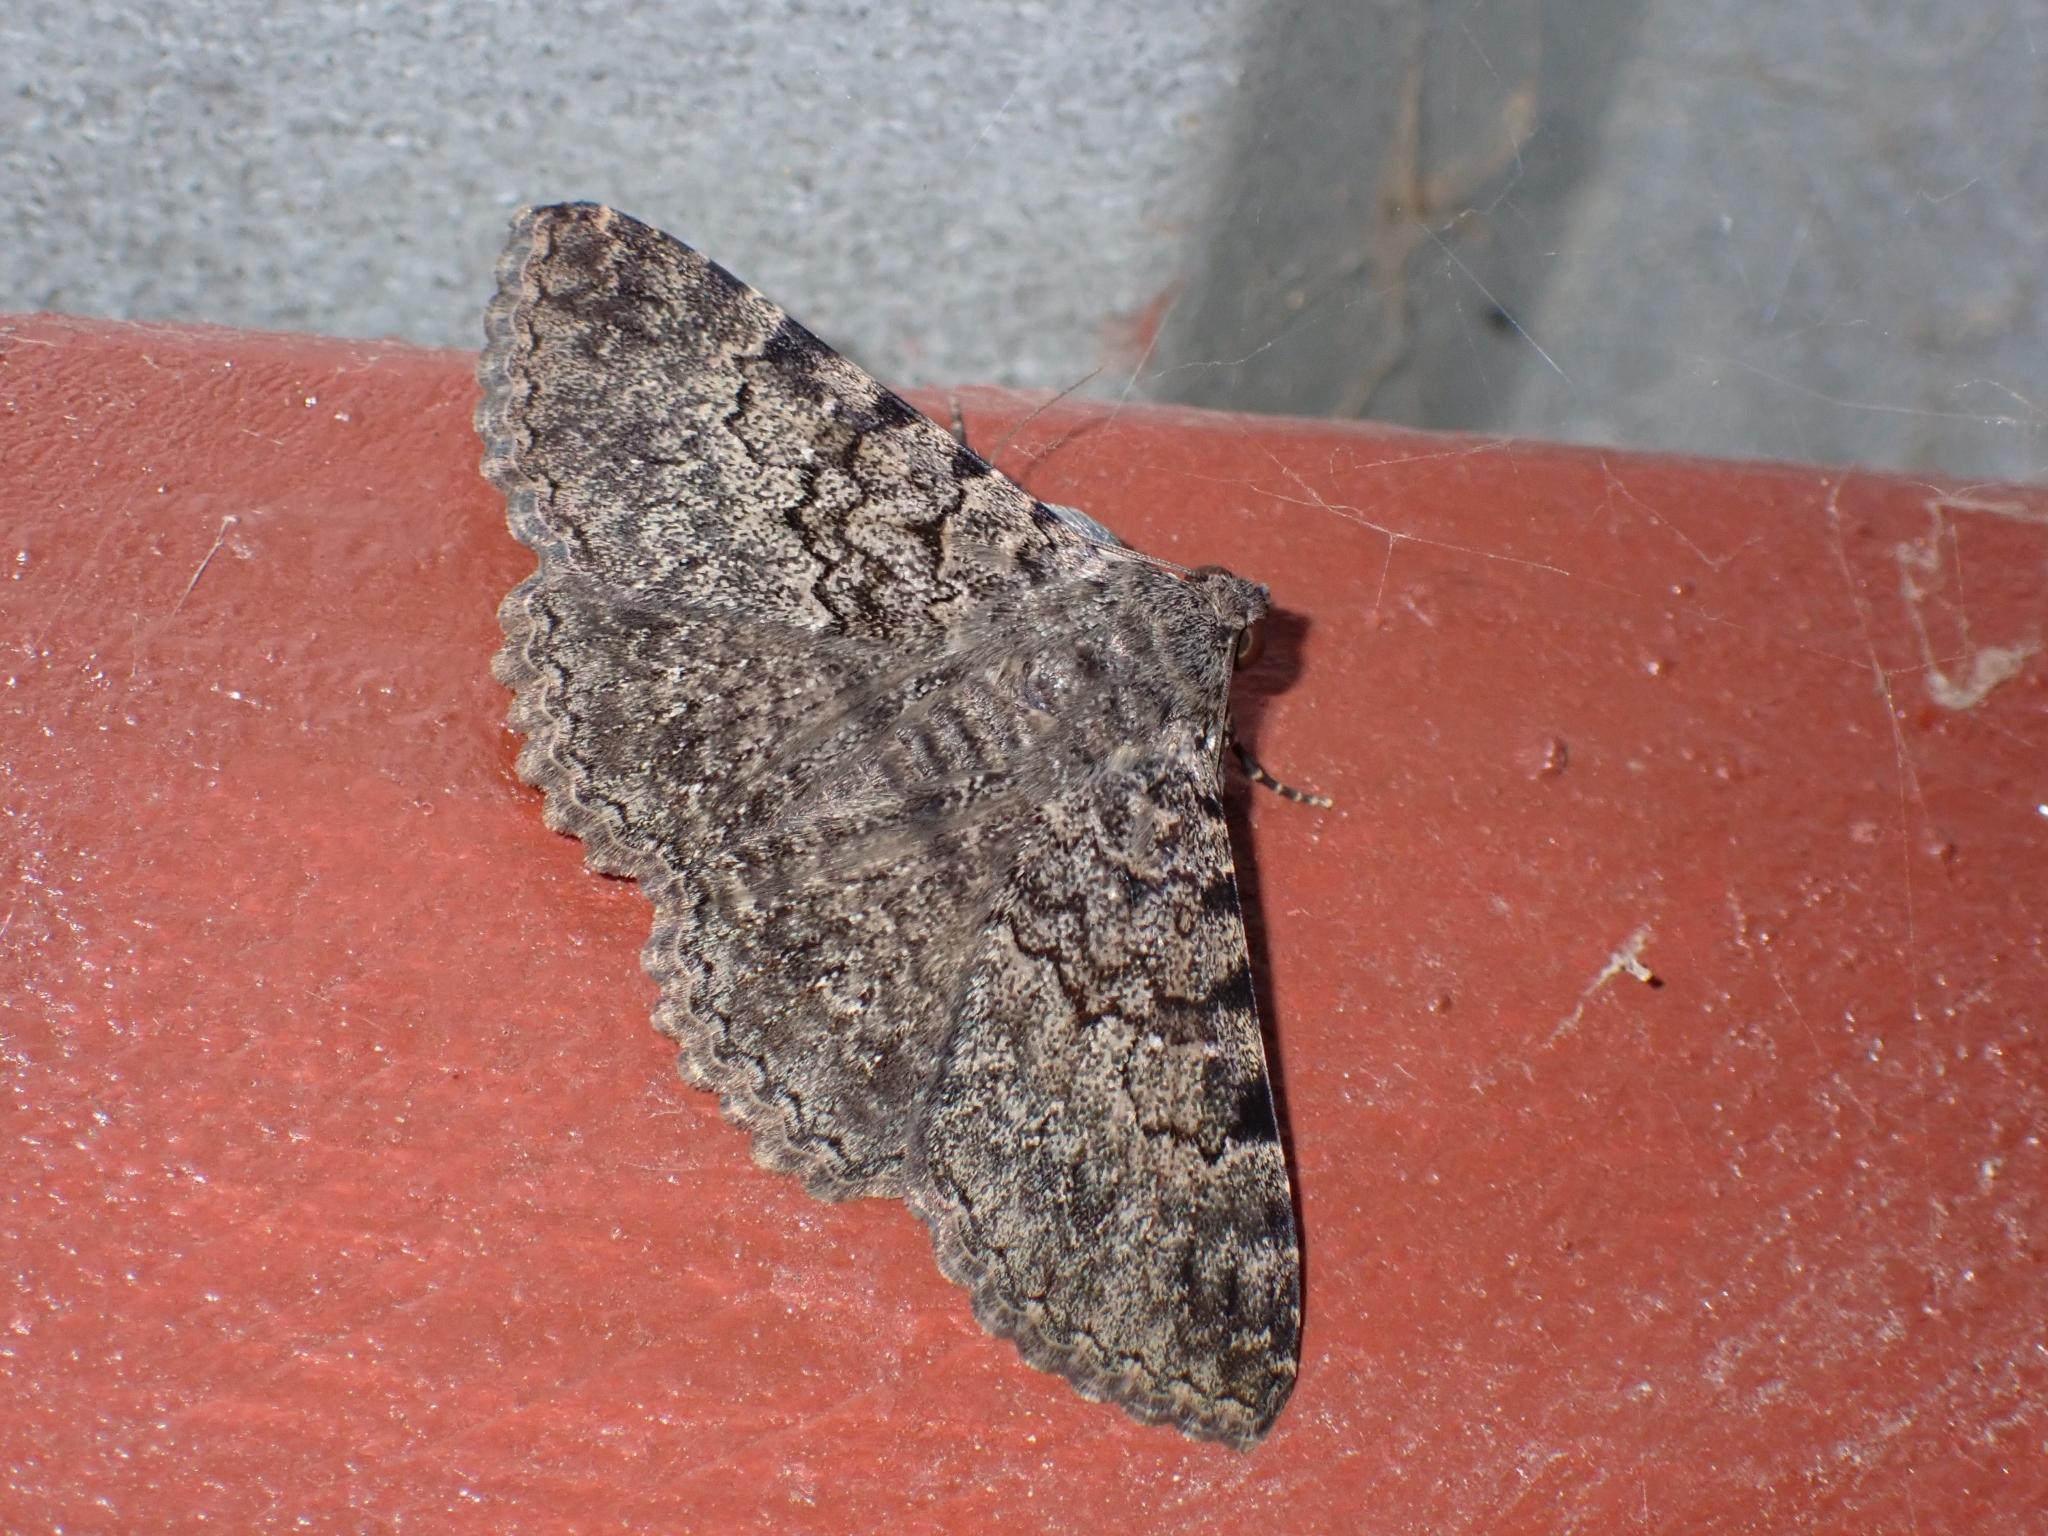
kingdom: Animalia
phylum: Arthropoda
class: Insecta
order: Lepidoptera
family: Erebidae
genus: Polydesma
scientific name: Polydesma boarmoides
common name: Moth
